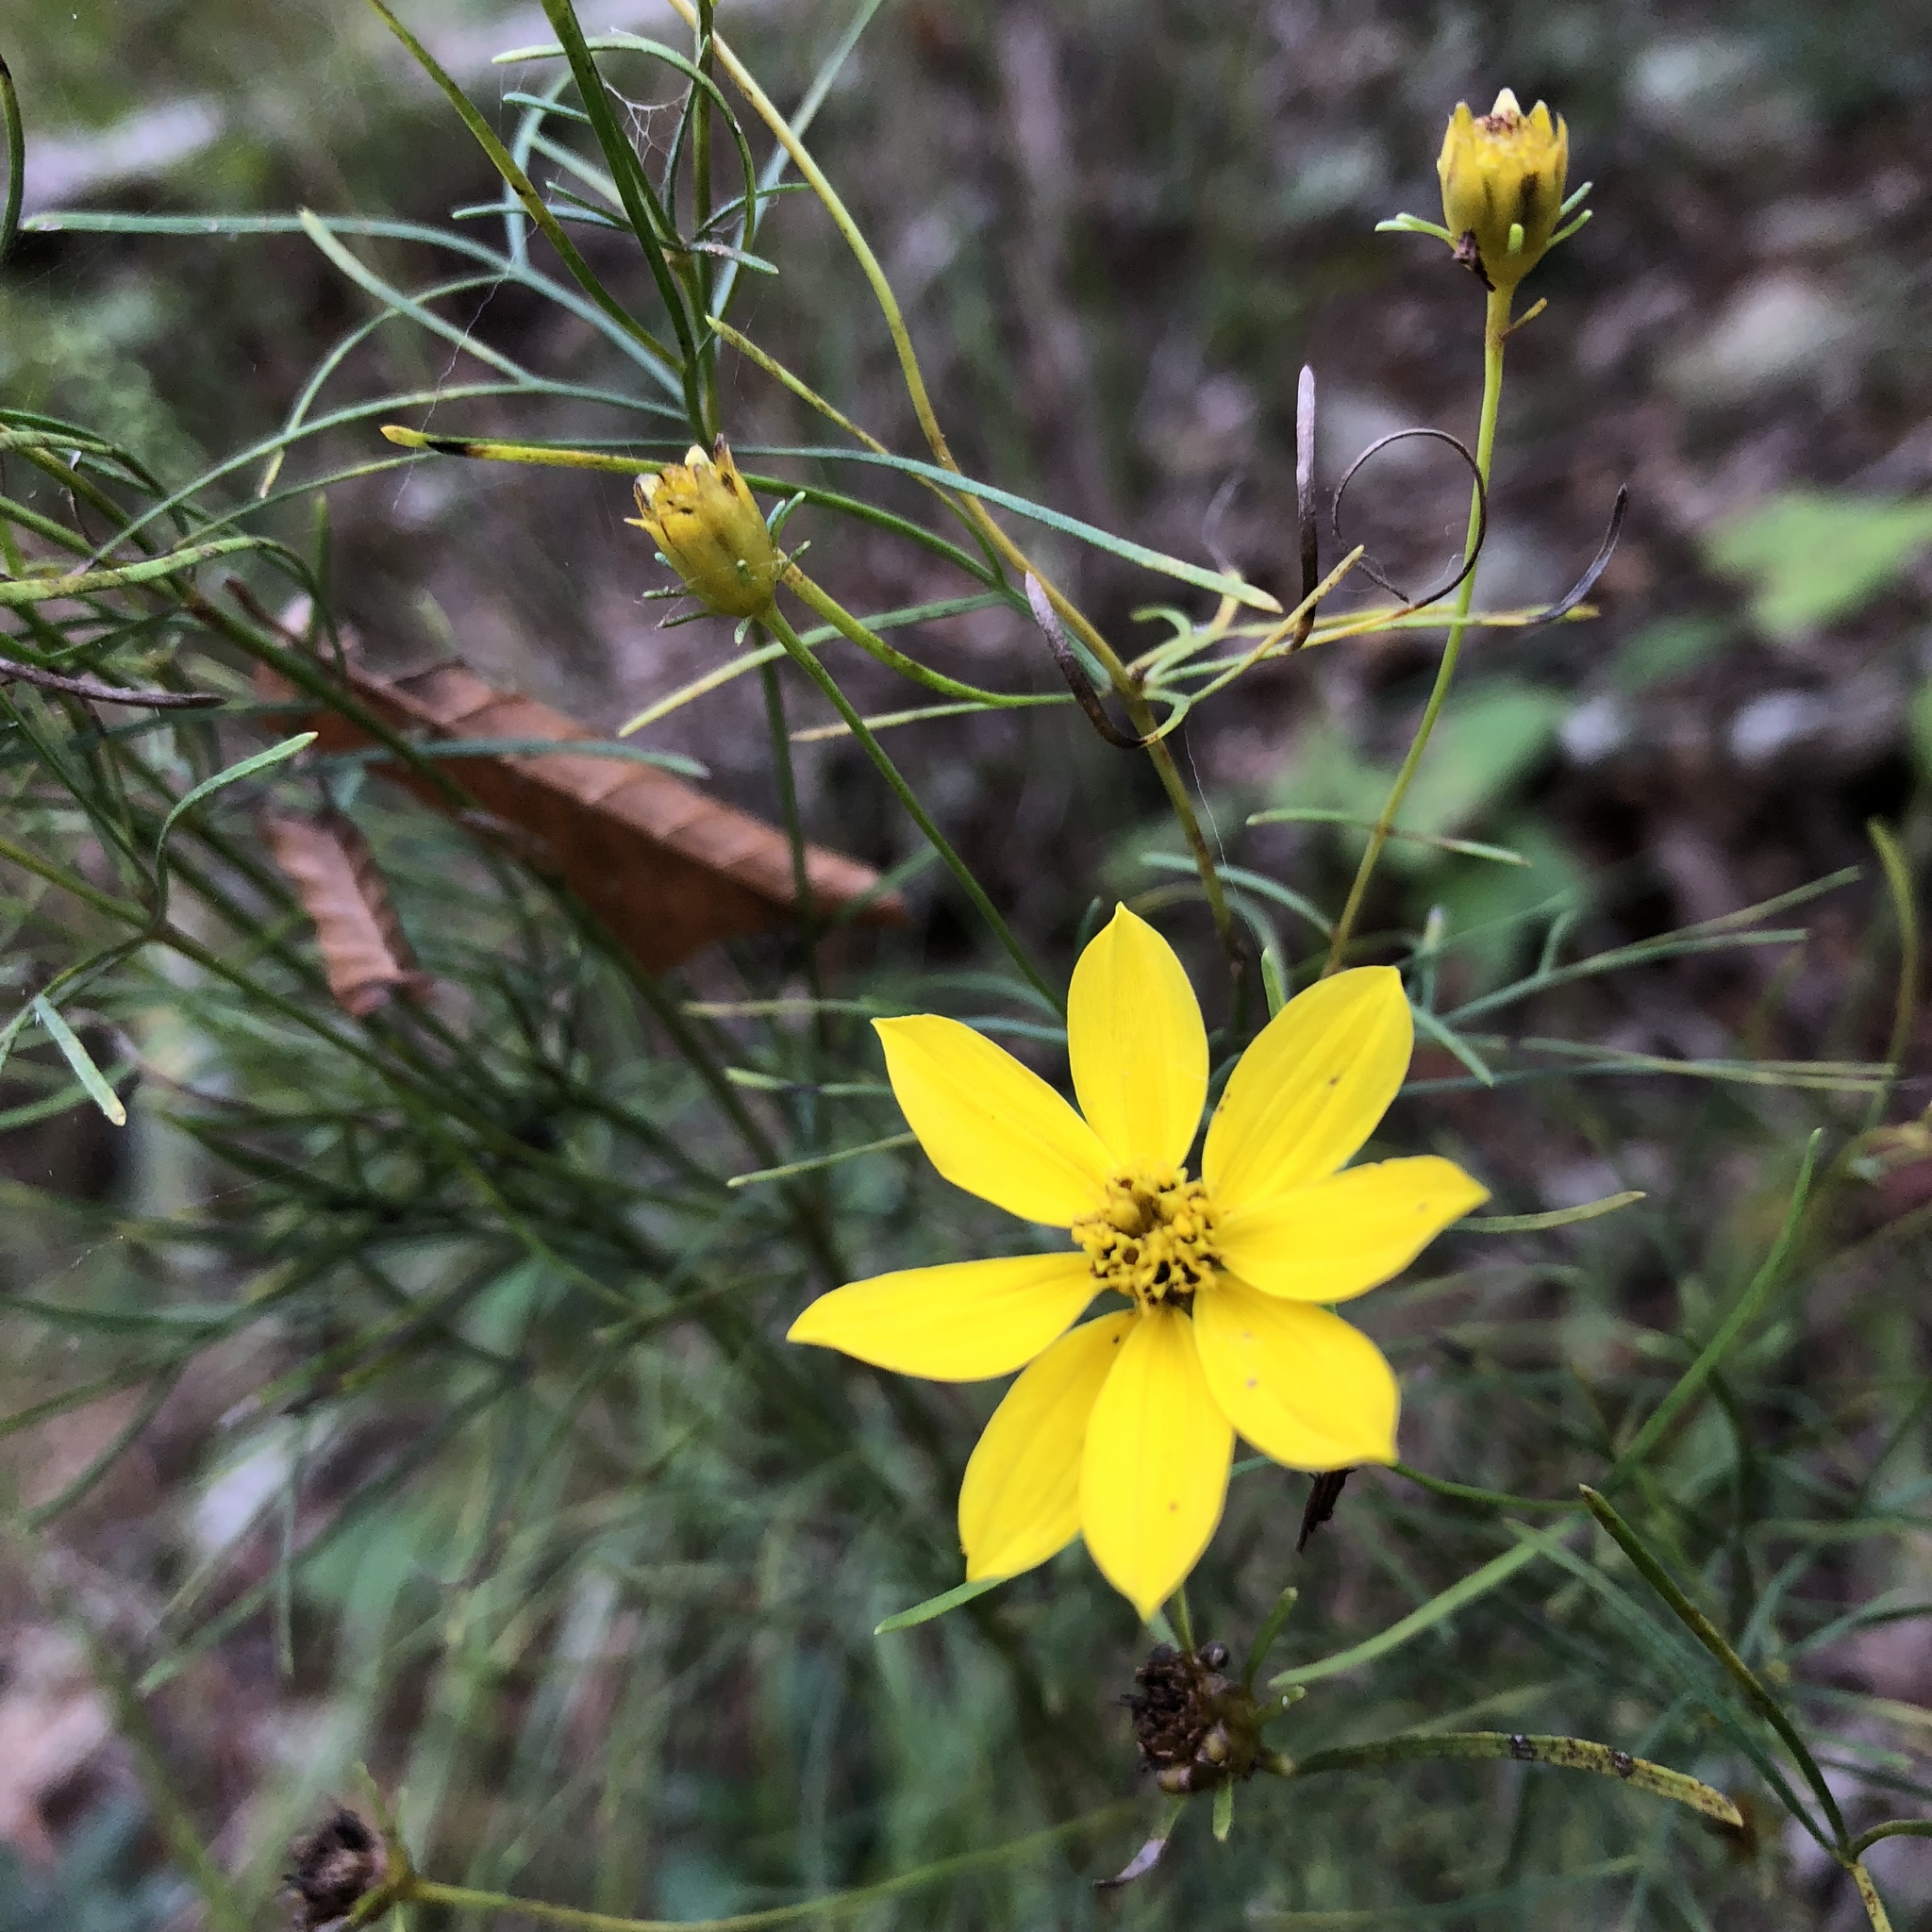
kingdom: Plantae
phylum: Tracheophyta
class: Magnoliopsida
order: Asterales
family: Asteraceae
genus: Coreopsis
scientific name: Coreopsis verticillata
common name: Whorled tickseed
